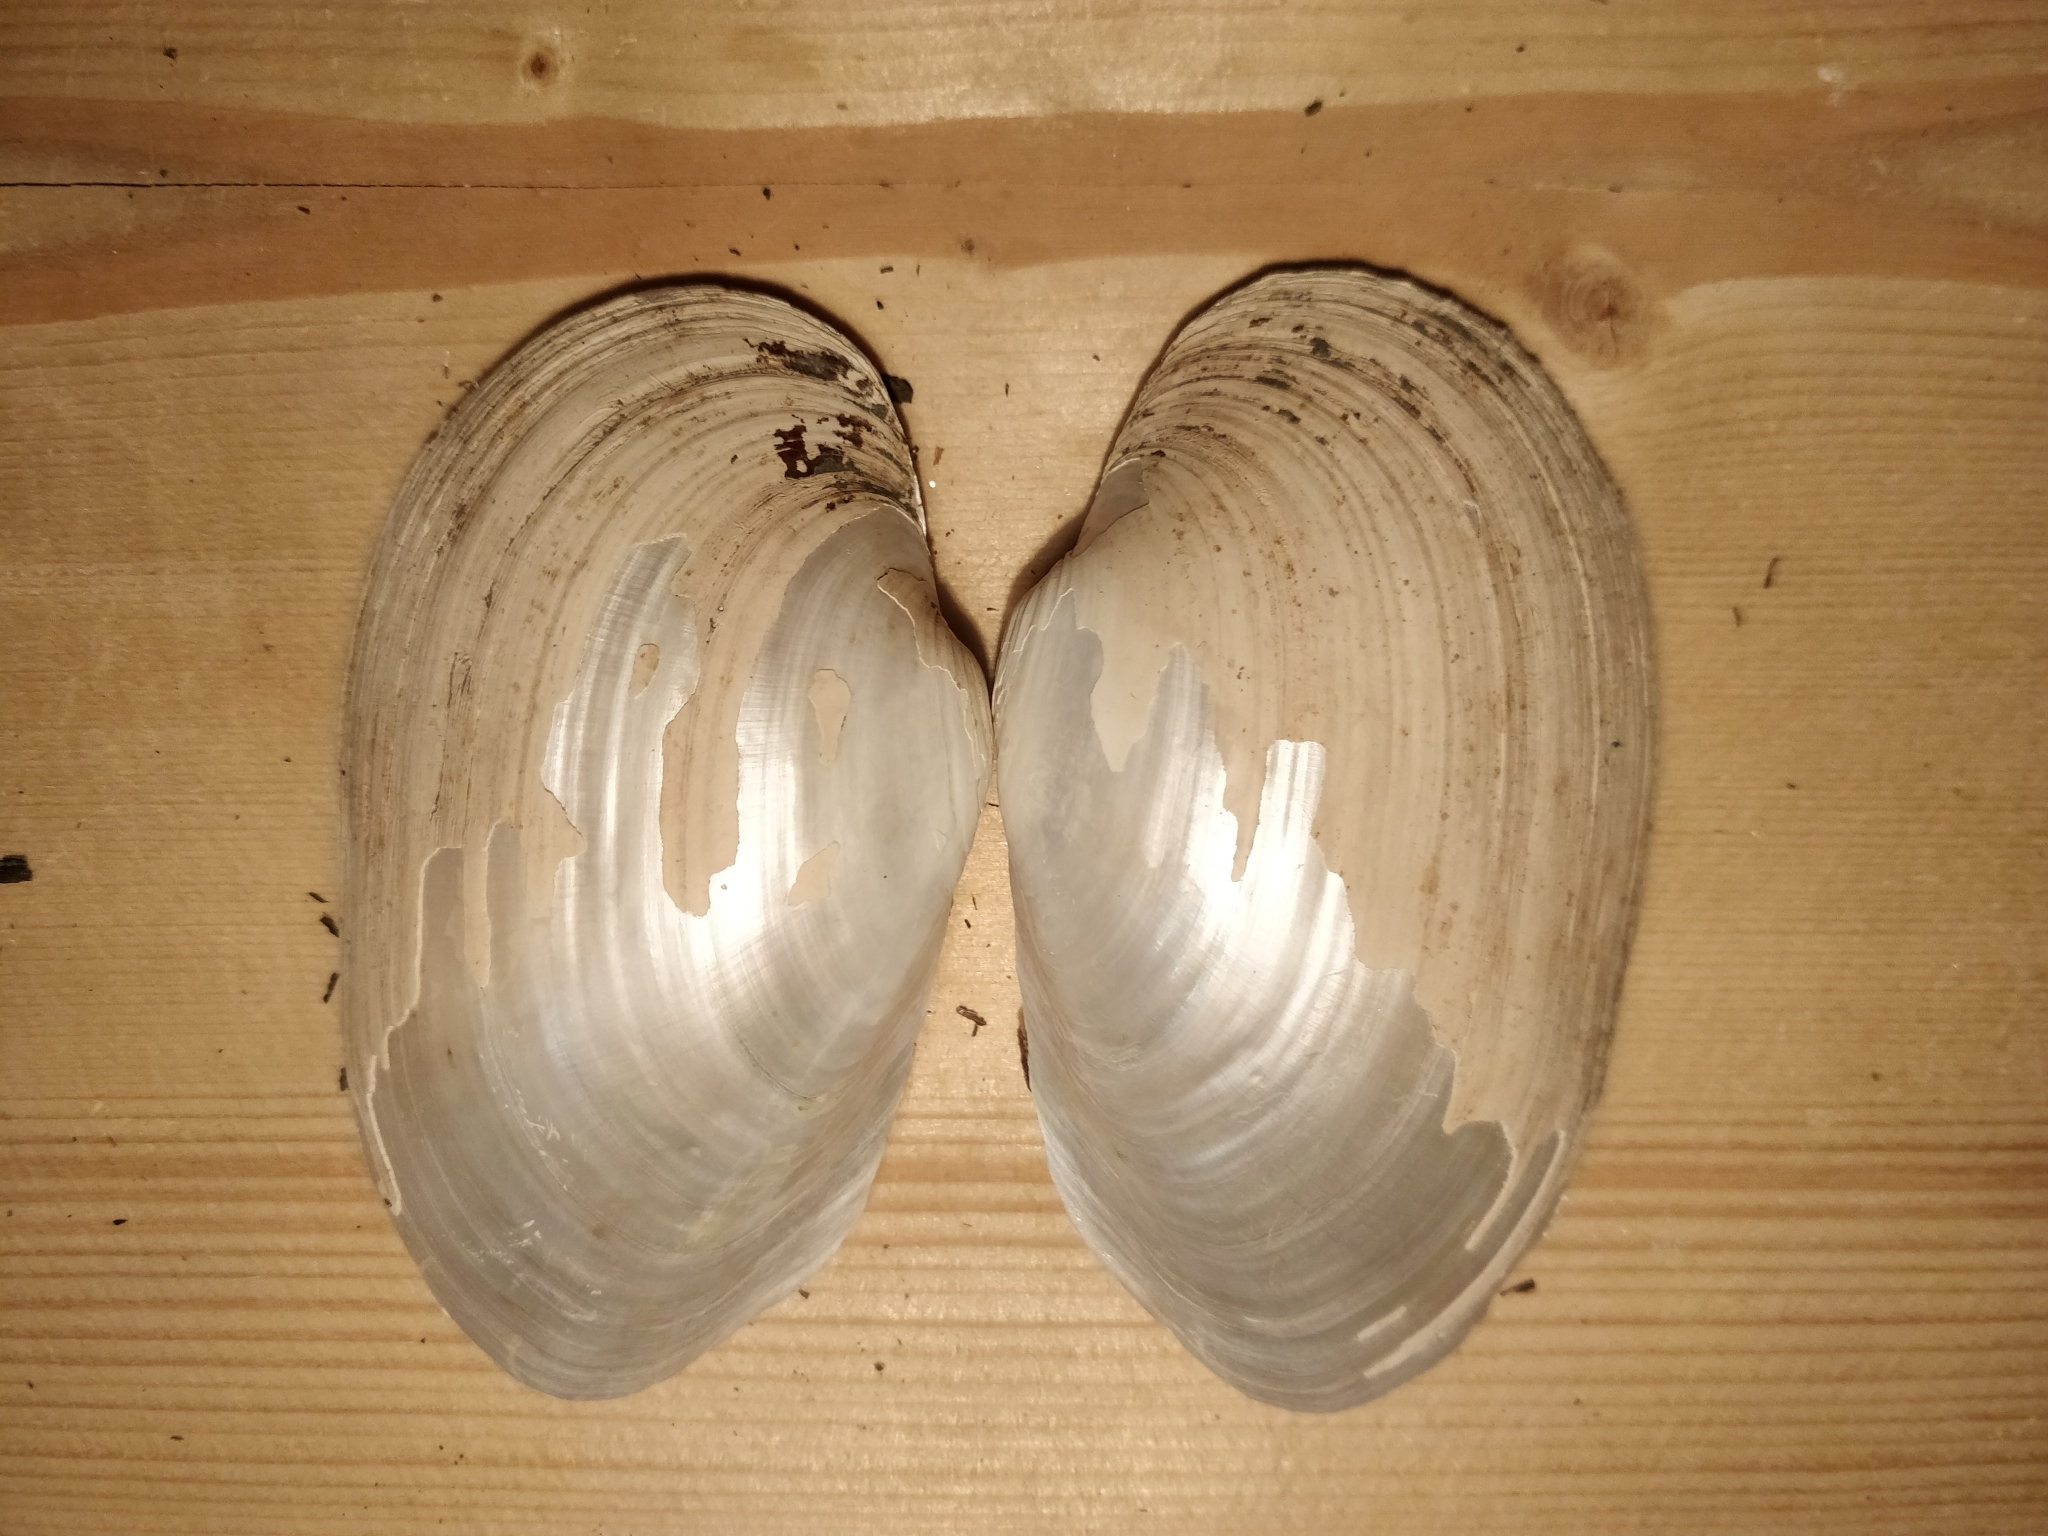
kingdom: Animalia
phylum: Mollusca
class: Bivalvia
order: Unionida
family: Unionidae
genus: Lampsilis
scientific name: Lampsilis siliquoidea
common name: Fatmucket
